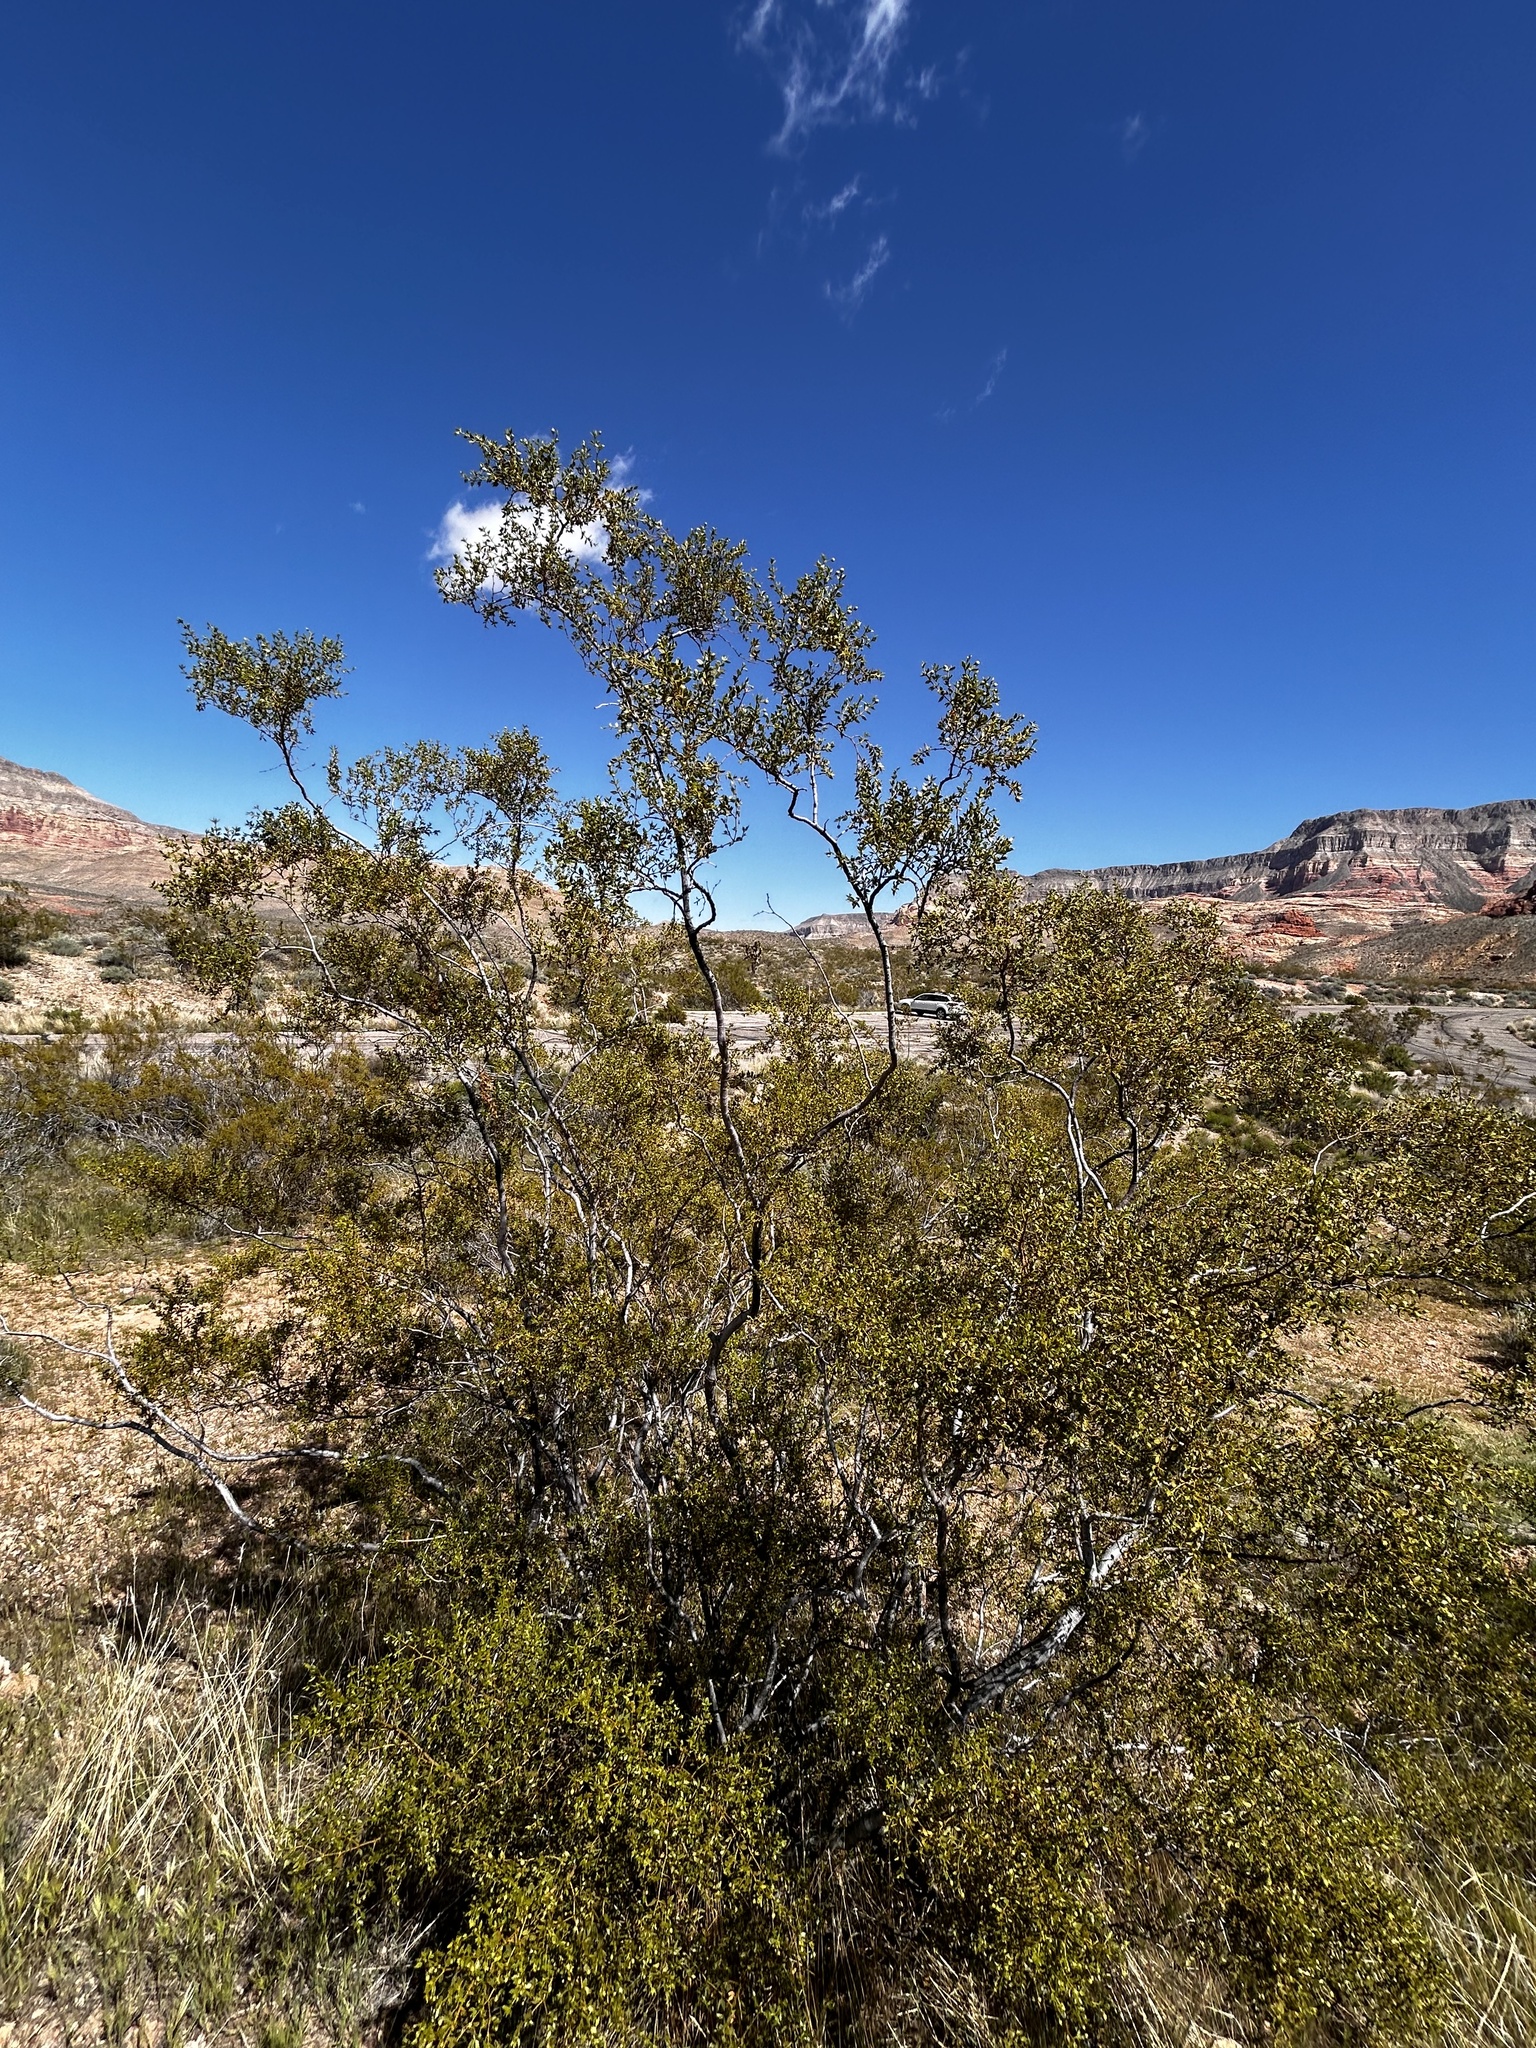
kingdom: Plantae
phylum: Tracheophyta
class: Magnoliopsida
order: Zygophyllales
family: Zygophyllaceae
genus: Larrea
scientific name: Larrea tridentata
